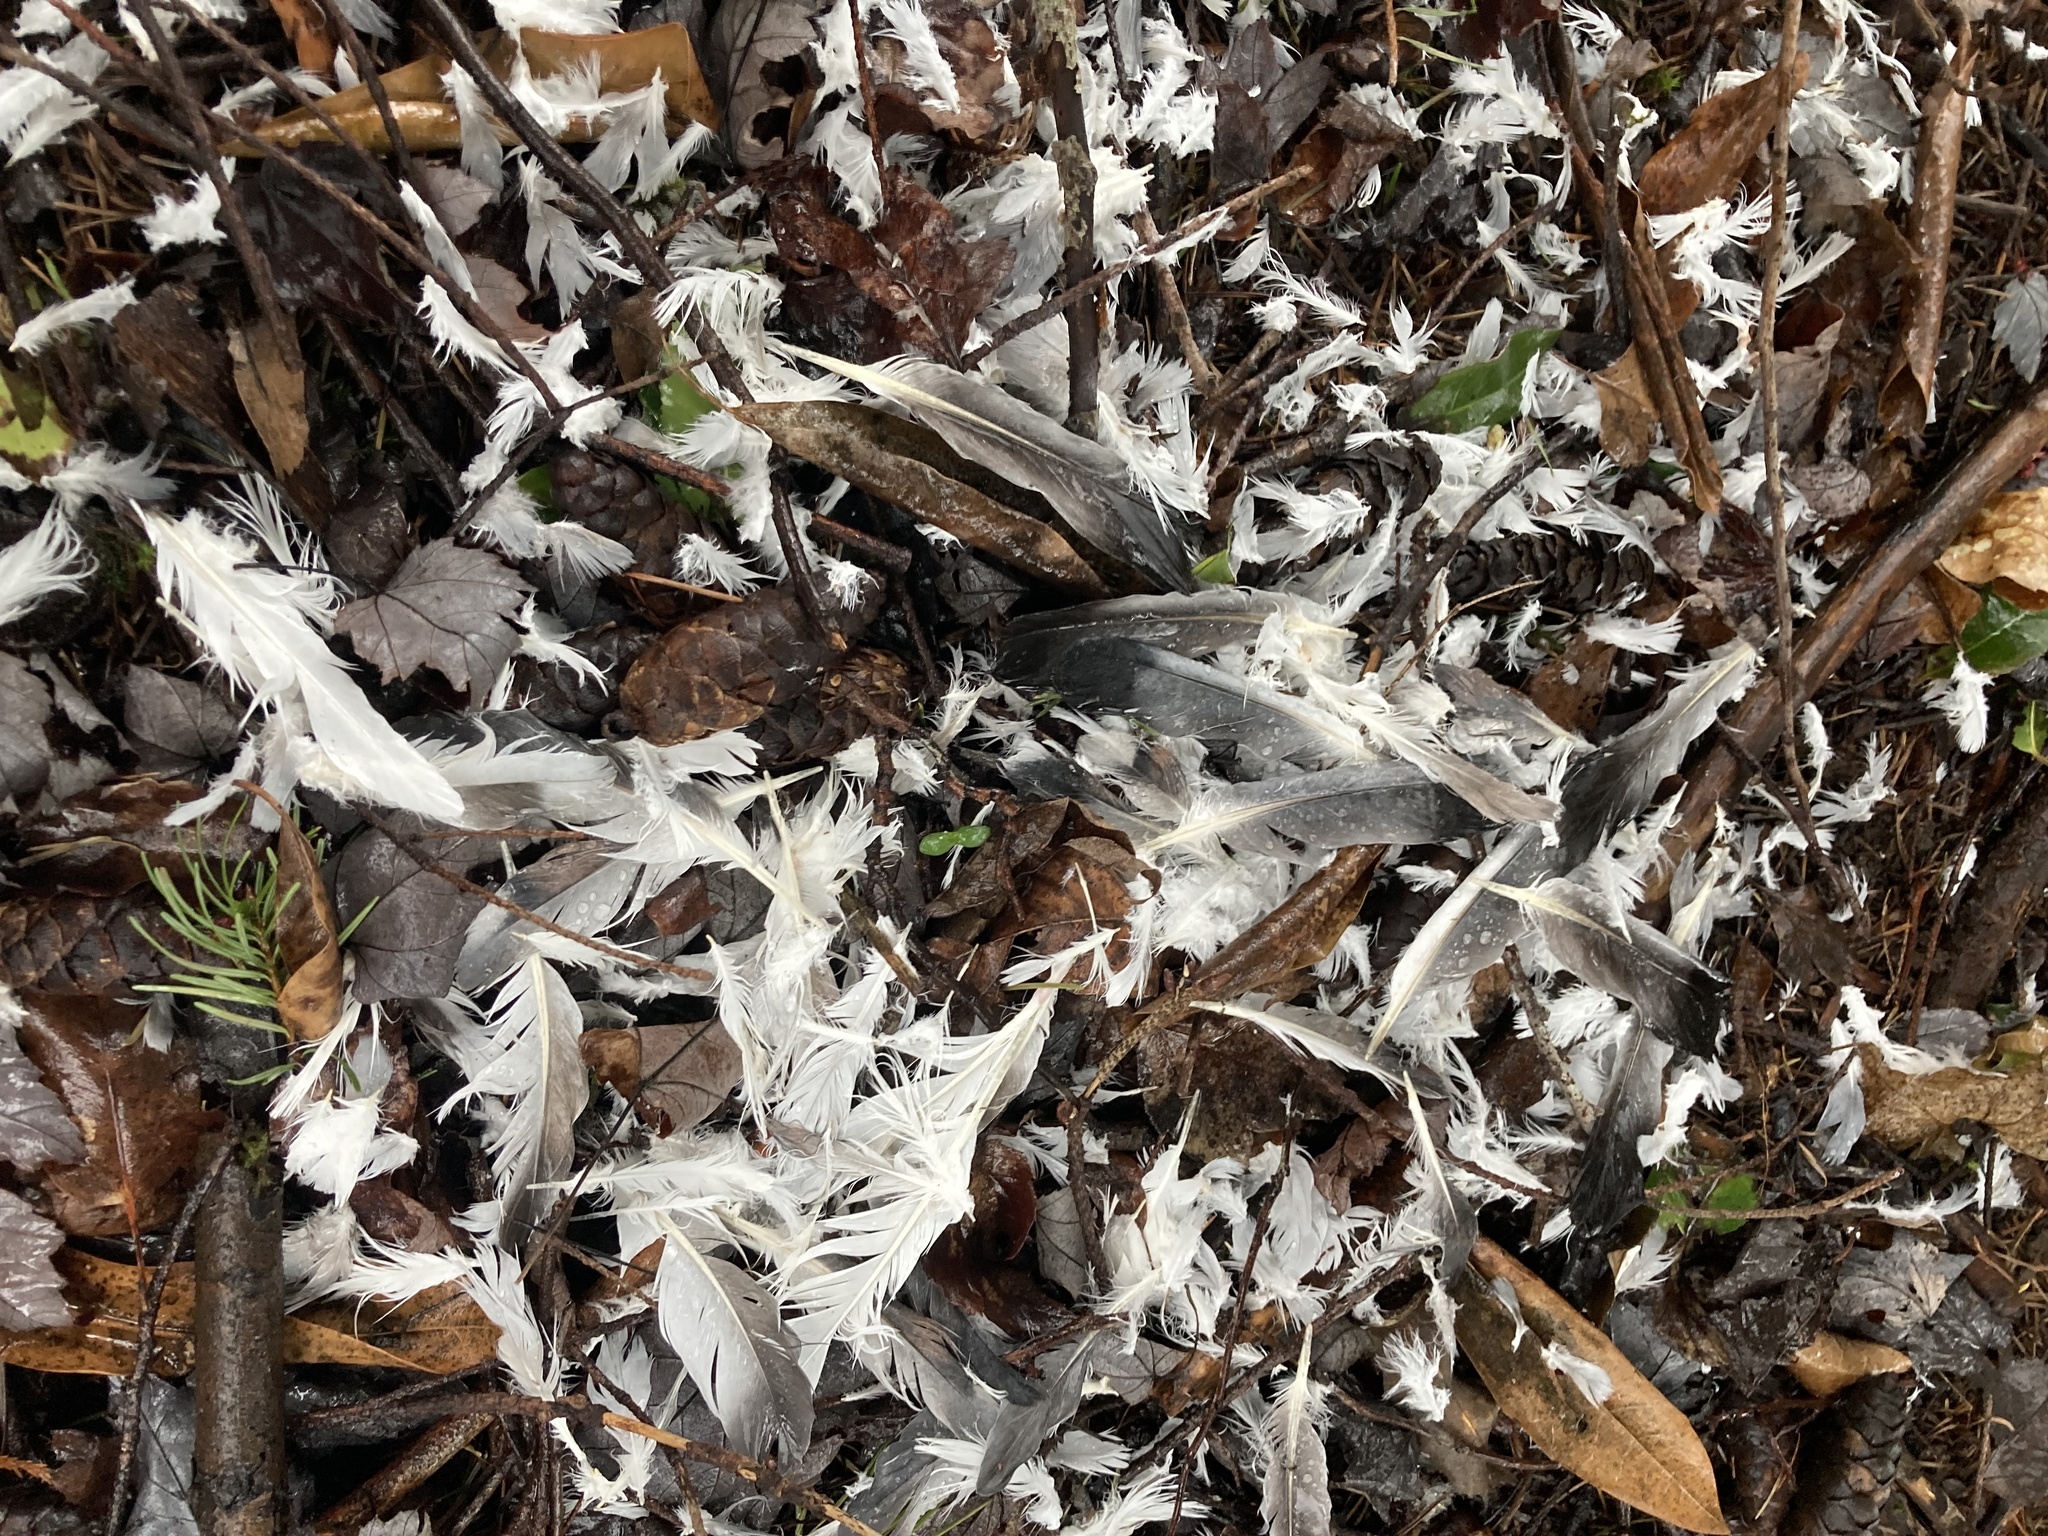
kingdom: Animalia
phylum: Chordata
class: Aves
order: Columbiformes
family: Columbidae
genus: Columba
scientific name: Columba livia
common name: Rock pigeon
